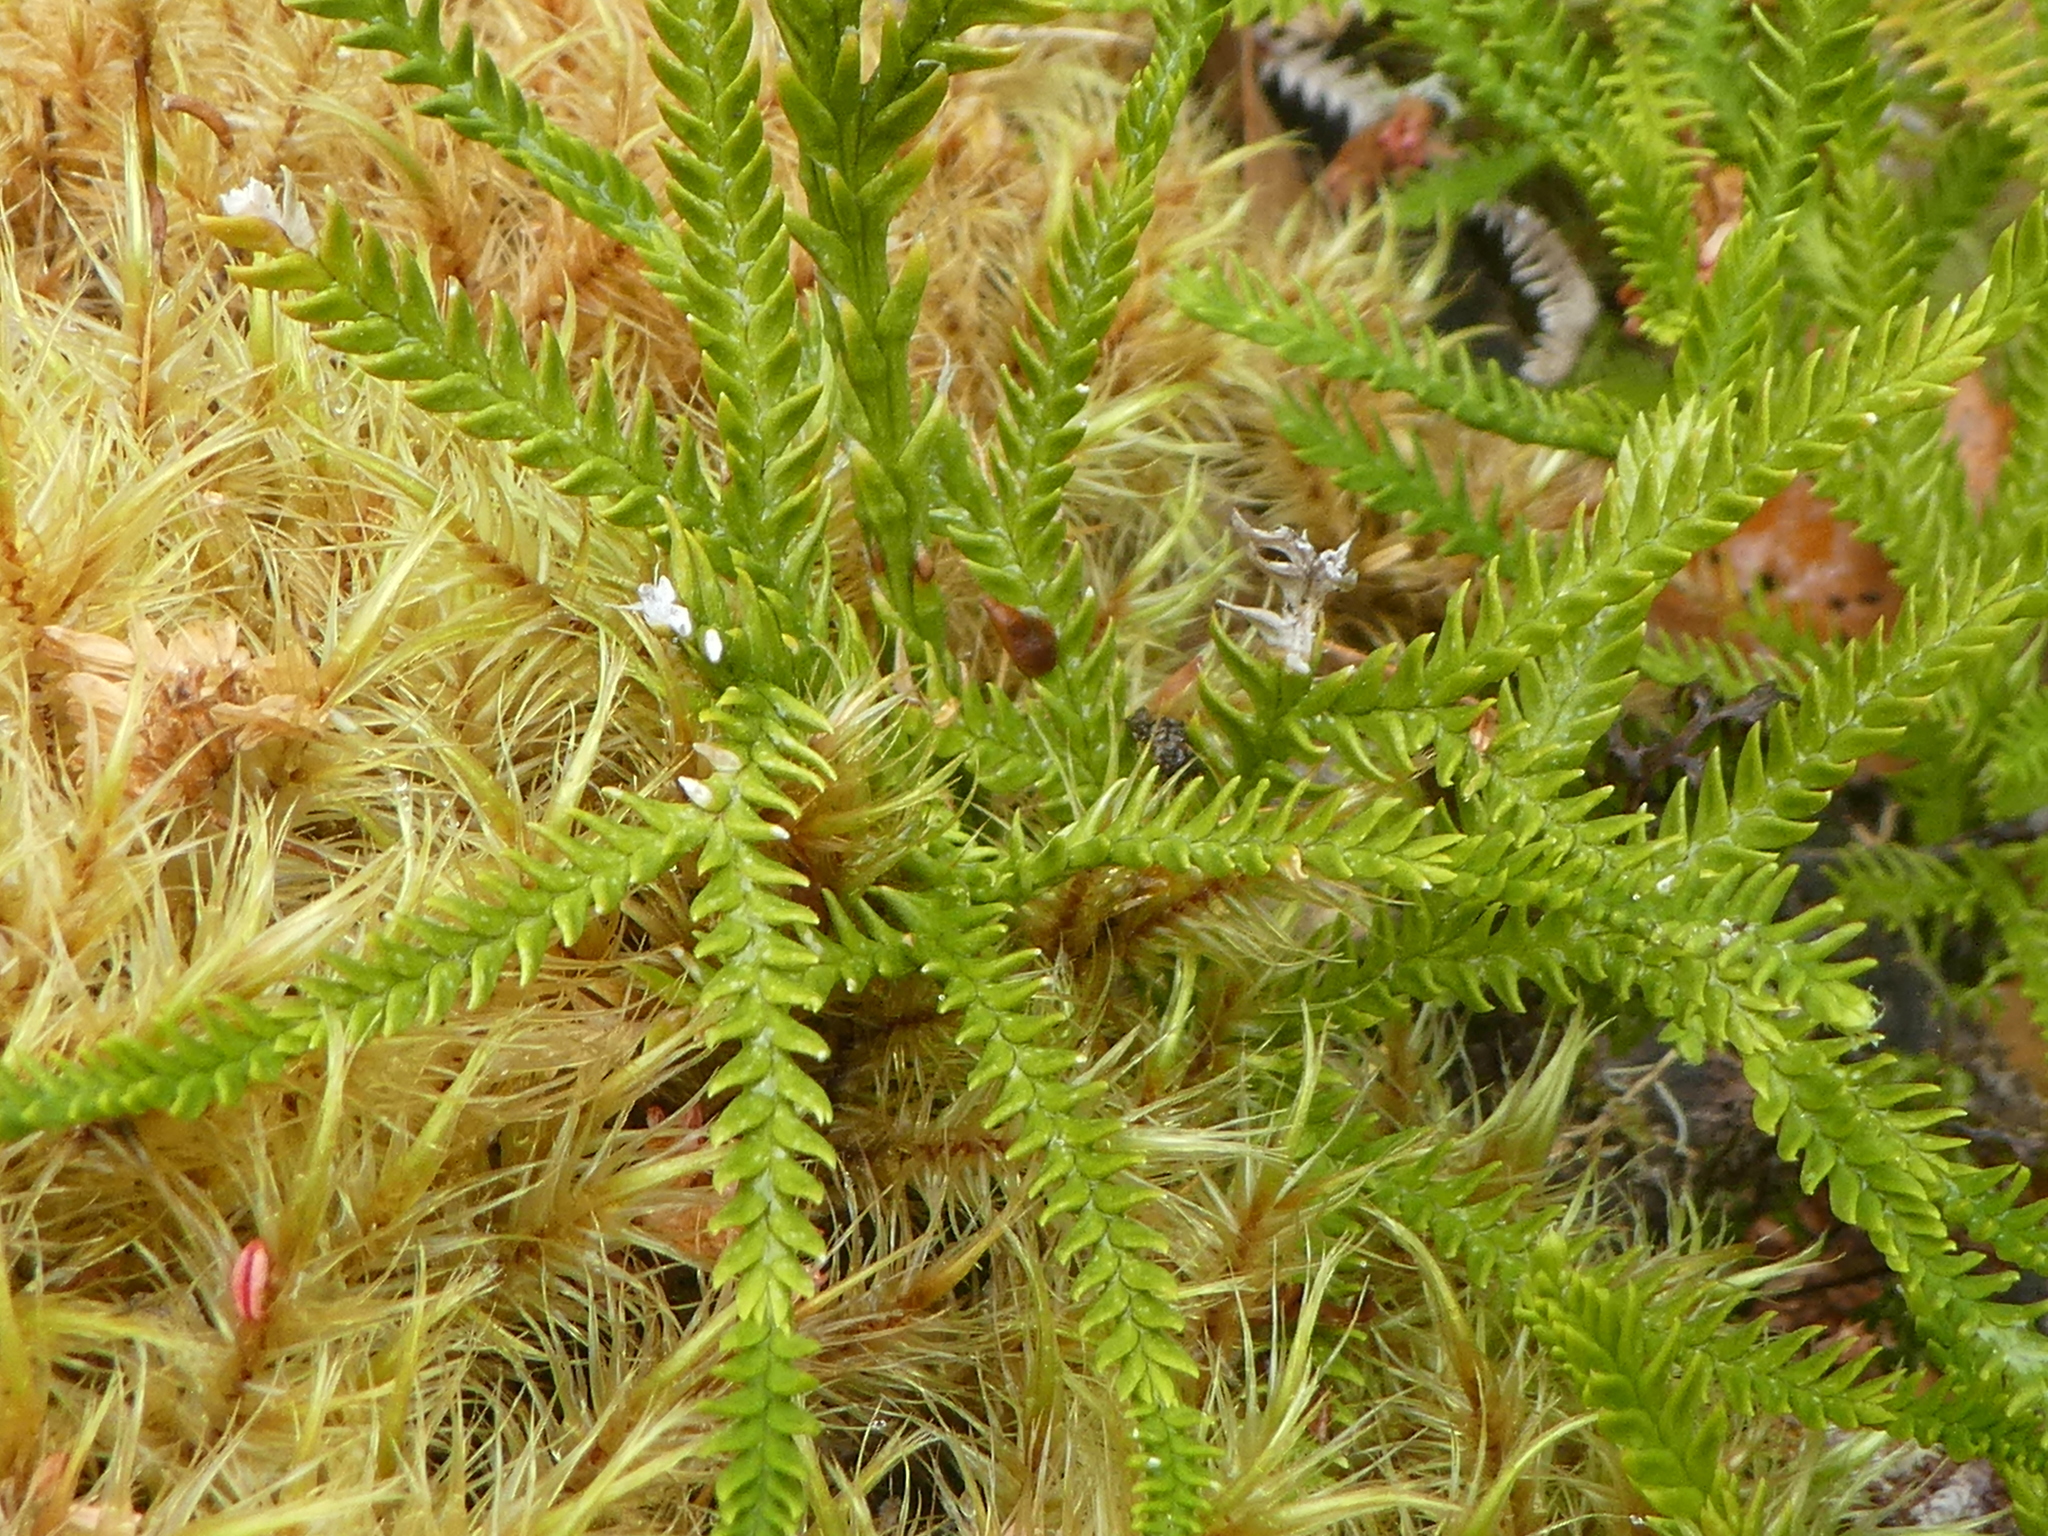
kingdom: Plantae
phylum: Tracheophyta
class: Lycopodiopsida
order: Lycopodiales
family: Lycopodiaceae
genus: Diphasium
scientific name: Diphasium scariosum
